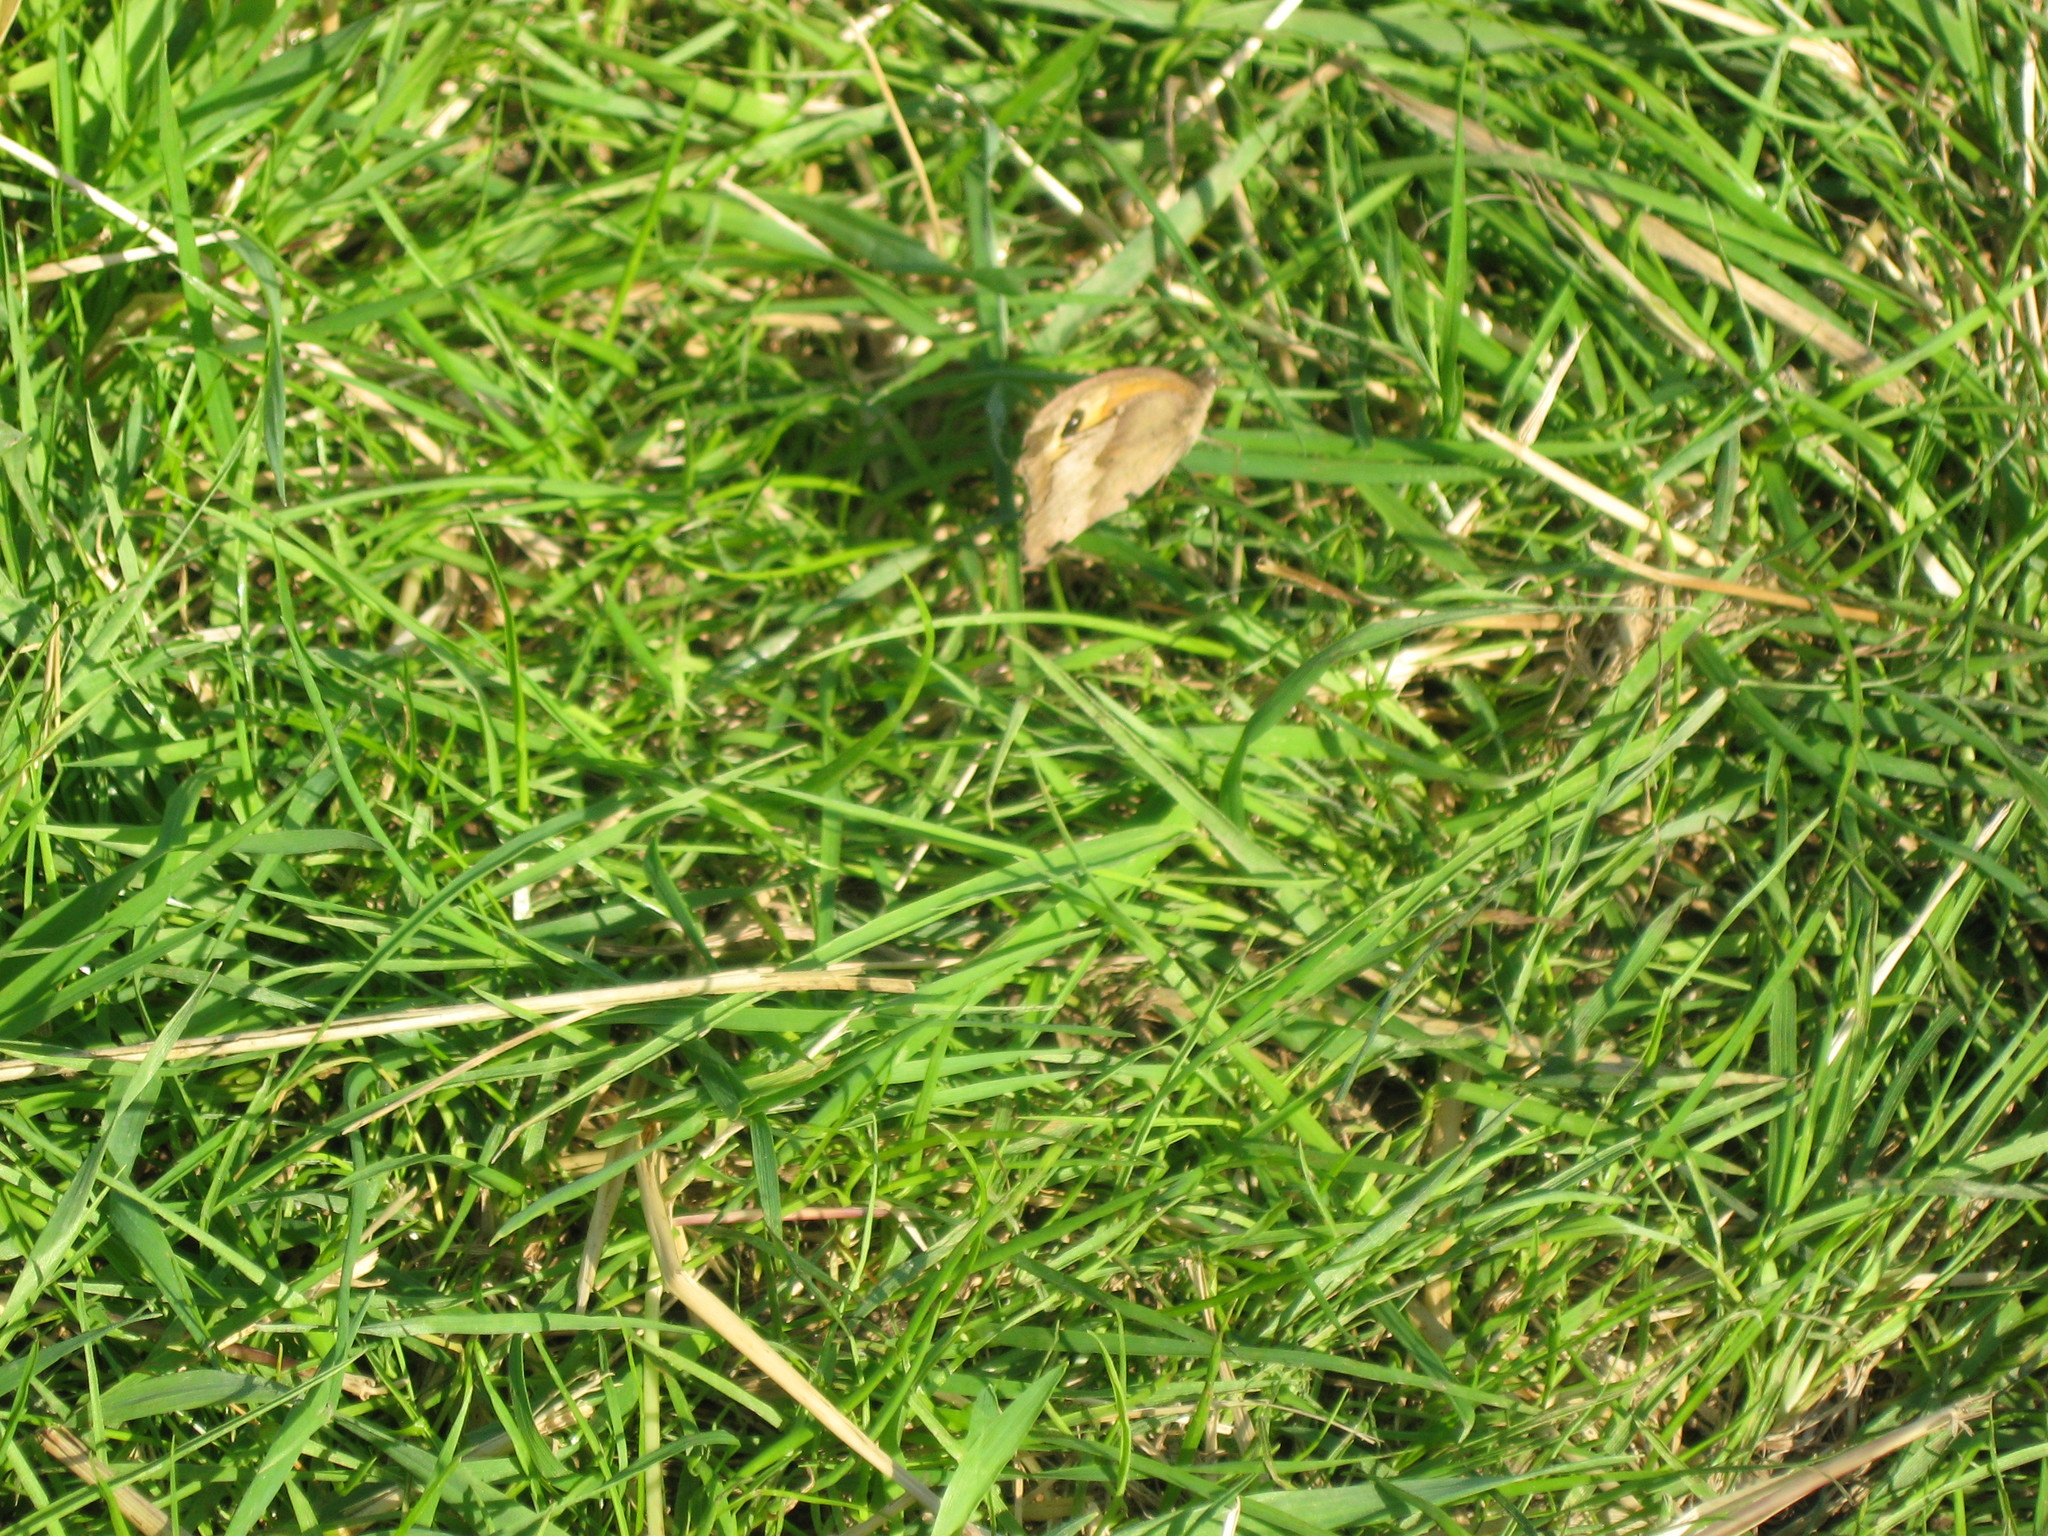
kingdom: Animalia
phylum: Arthropoda
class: Insecta
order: Lepidoptera
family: Nymphalidae
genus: Maniola
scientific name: Maniola jurtina
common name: Meadow brown
